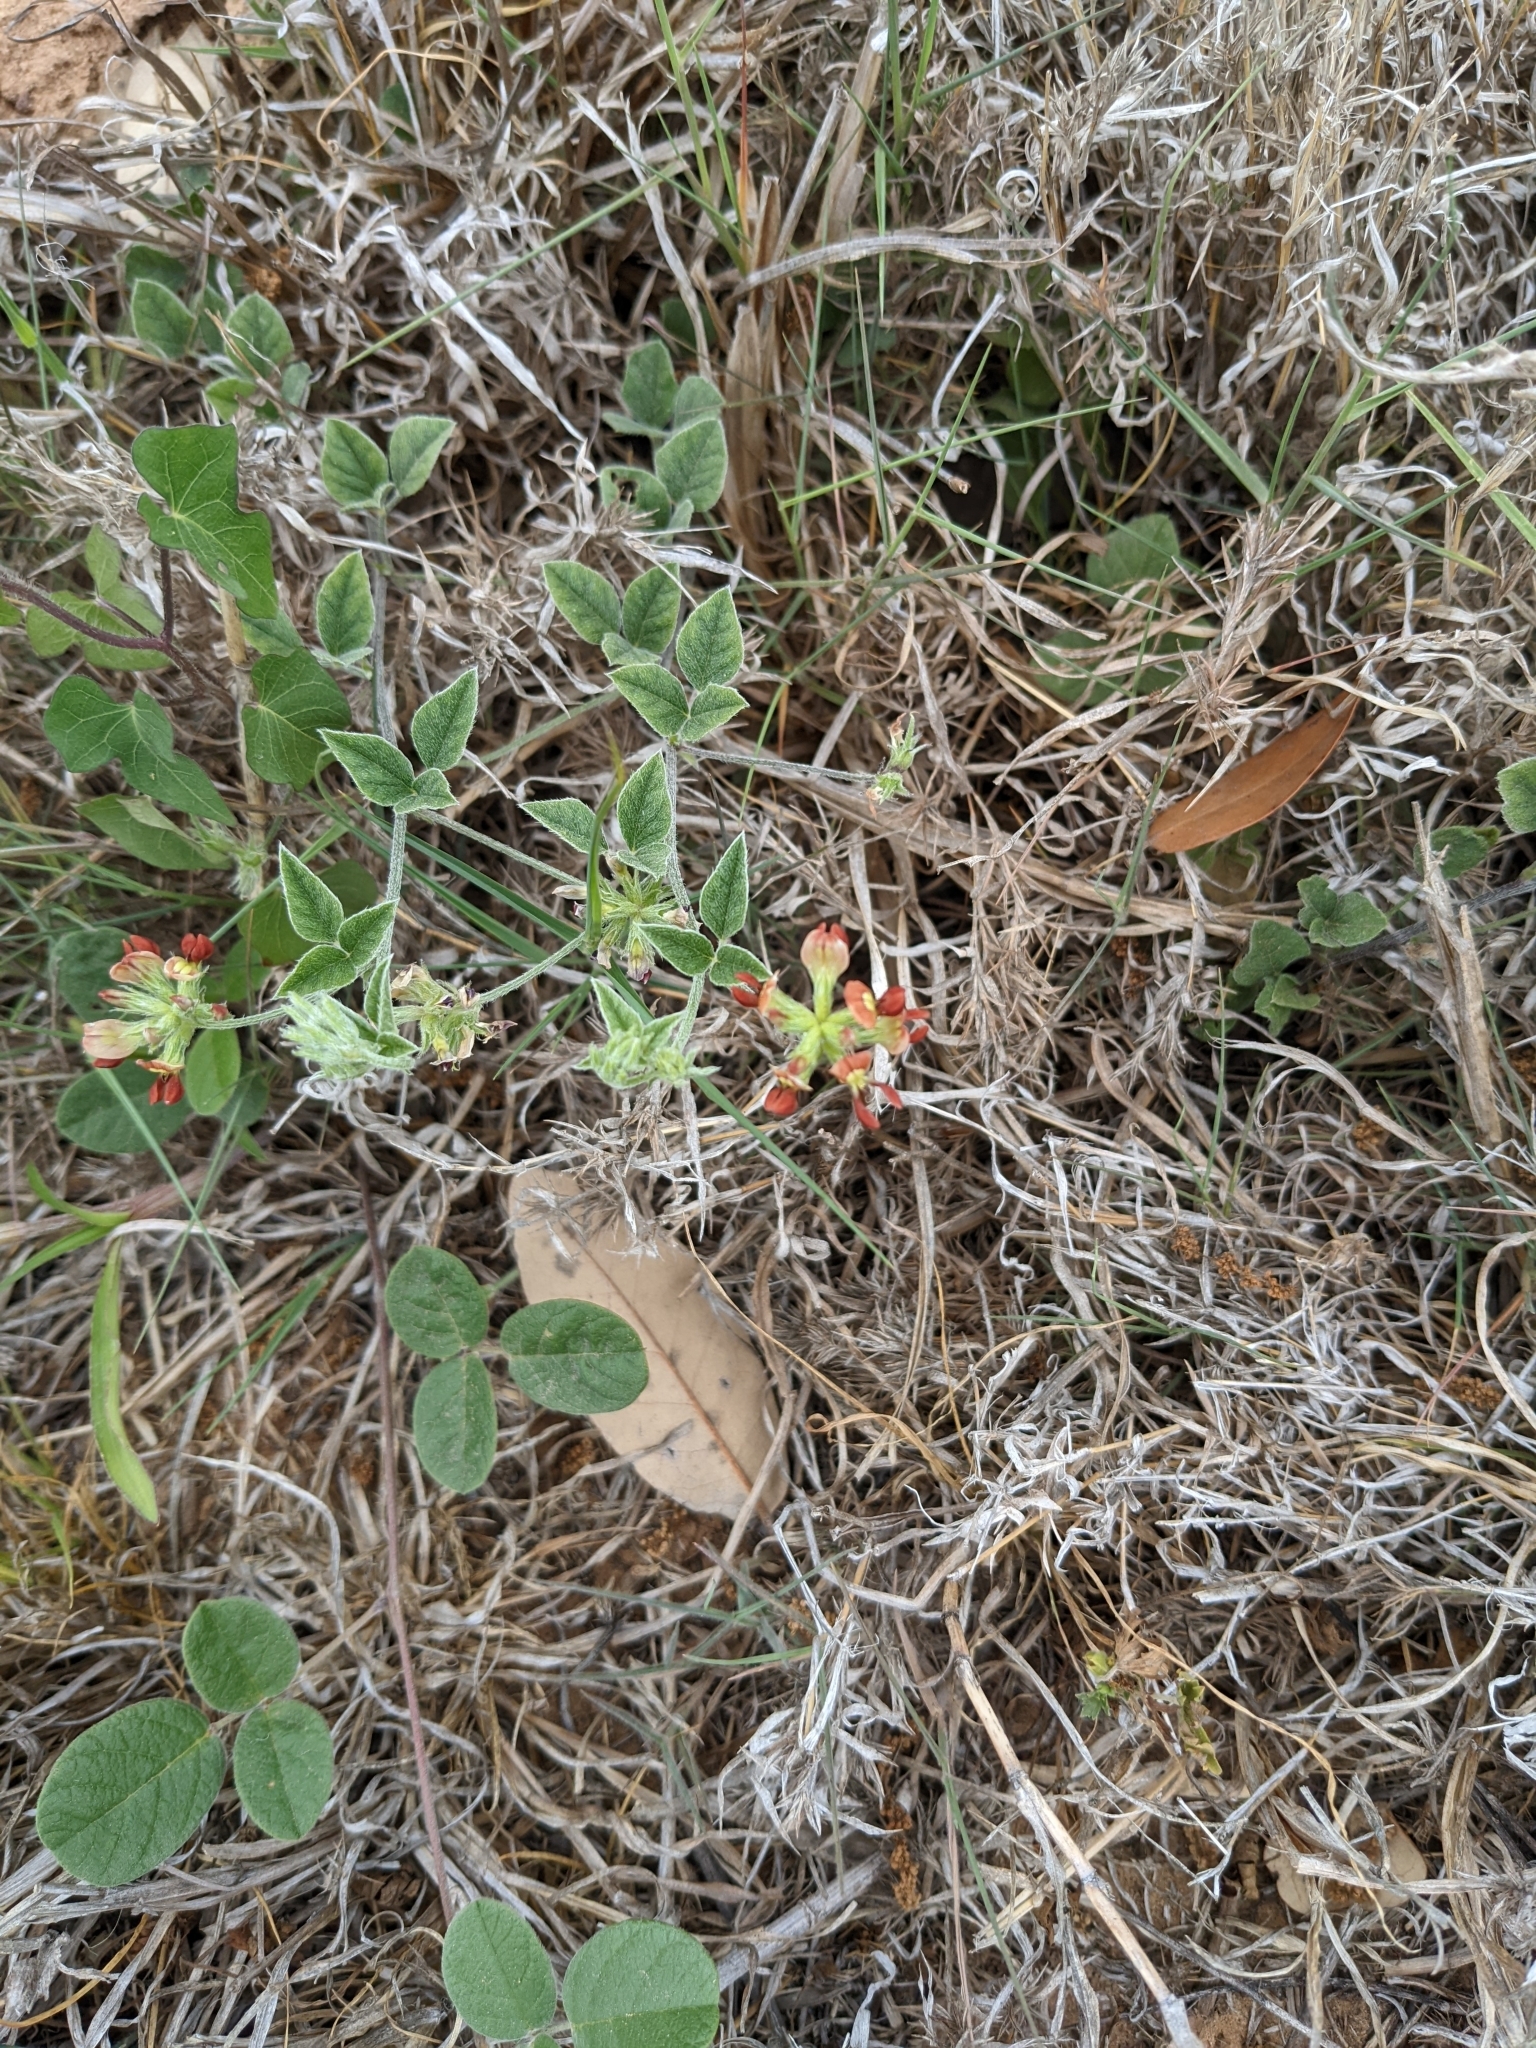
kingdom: Plantae
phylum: Tracheophyta
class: Magnoliopsida
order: Fabales
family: Fabaceae
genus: Pediomelum
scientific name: Pediomelum rhombifolium
